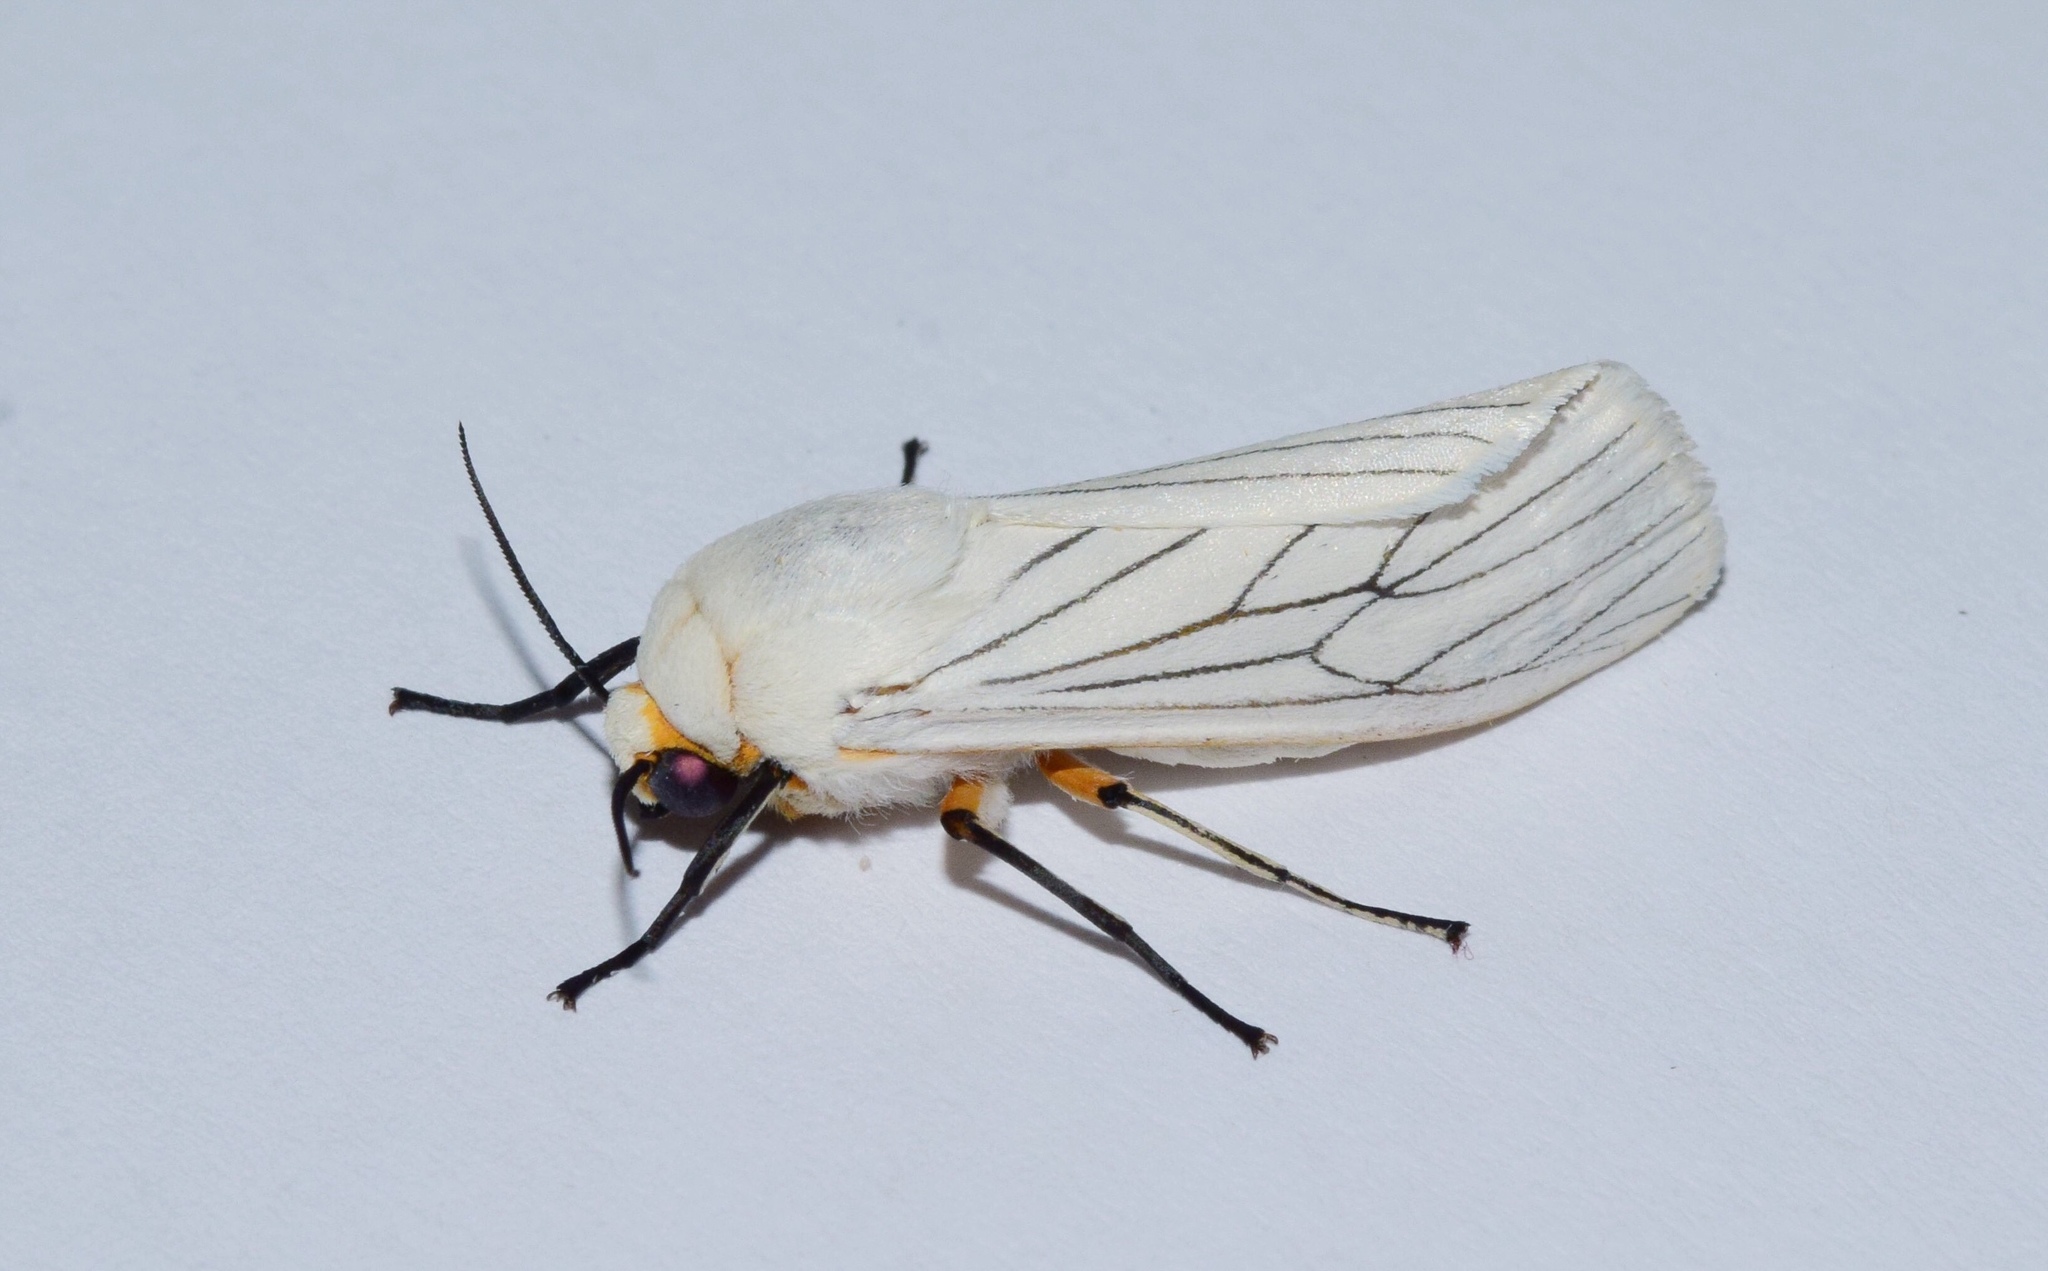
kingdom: Animalia
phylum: Arthropoda
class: Insecta
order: Lepidoptera
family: Erebidae
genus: Ustjuzhania
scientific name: Ustjuzhania lineata
